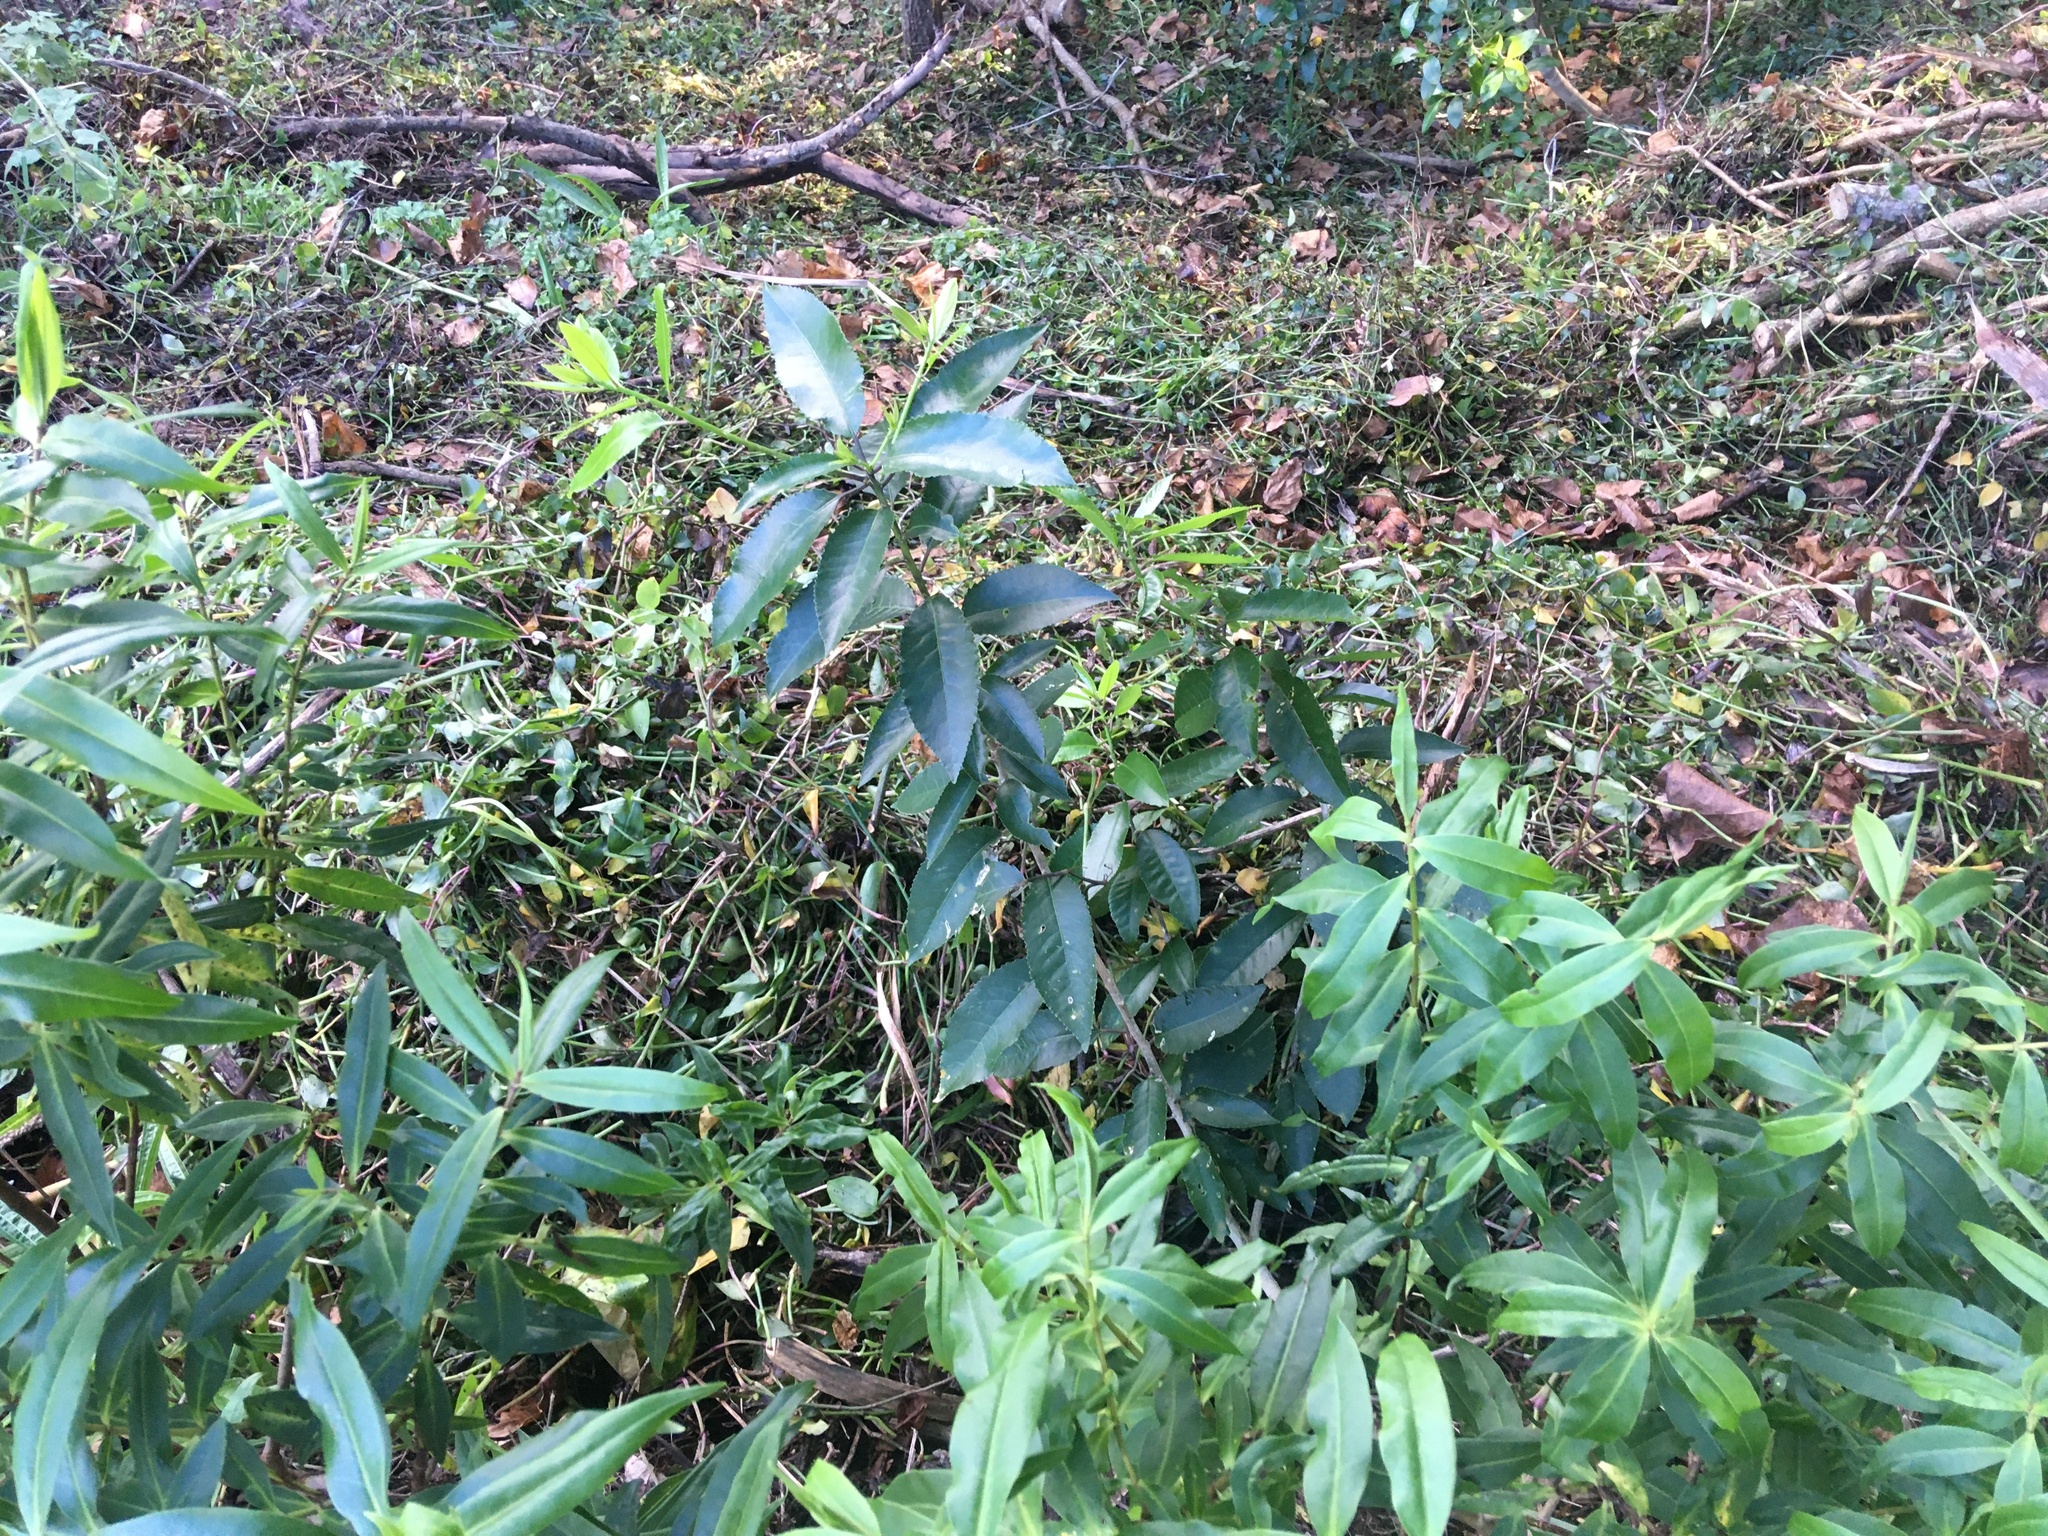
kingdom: Plantae
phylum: Tracheophyta
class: Magnoliopsida
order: Malpighiales
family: Violaceae
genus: Melicytus
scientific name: Melicytus ramiflorus
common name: Mahoe
